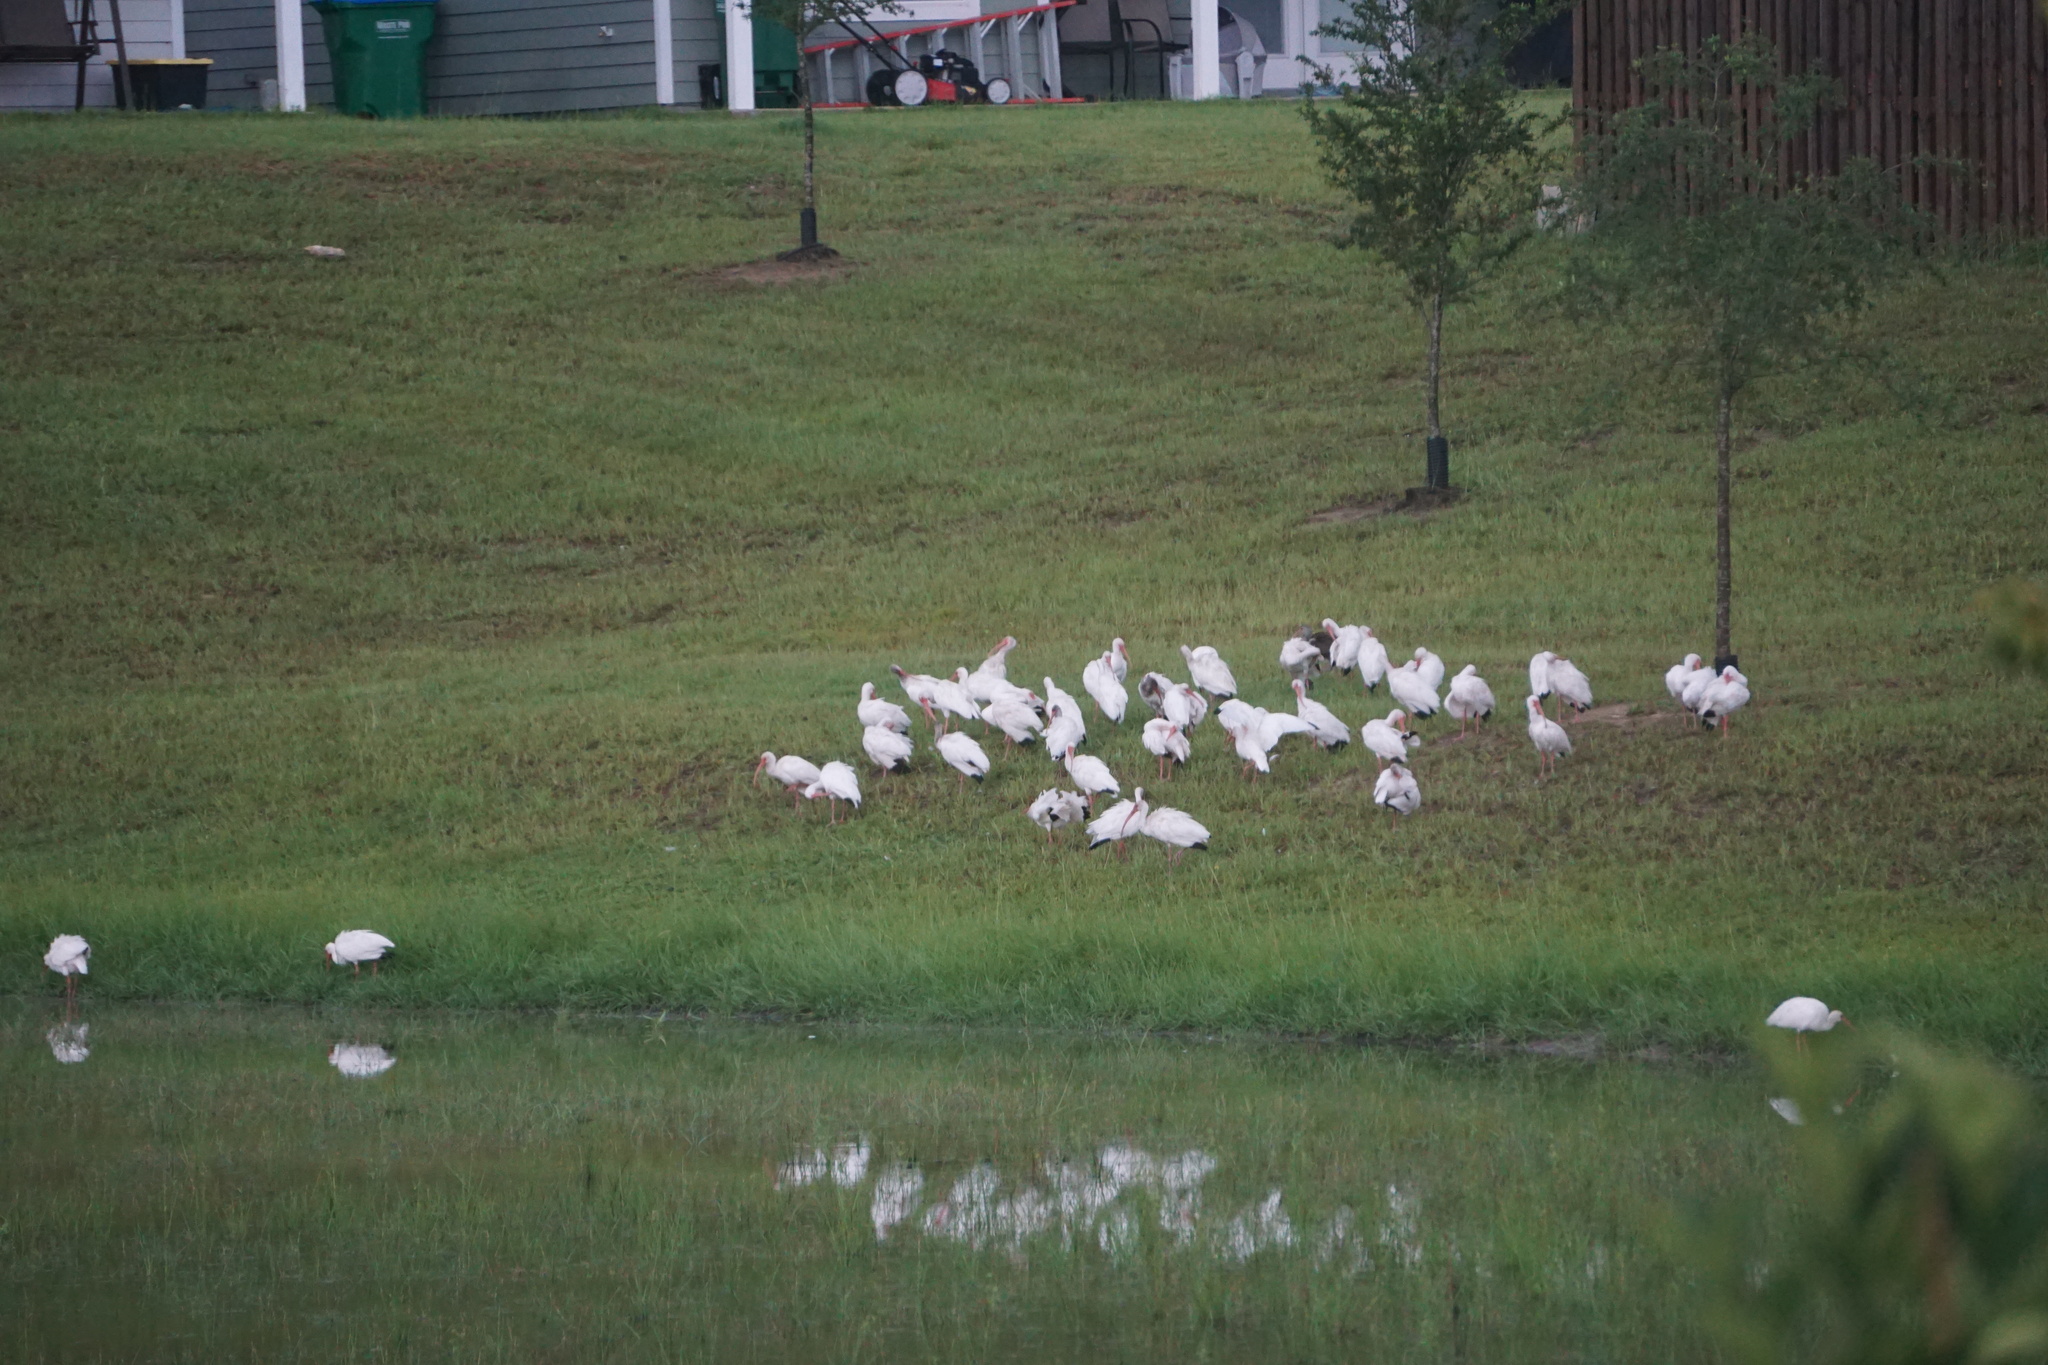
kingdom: Animalia
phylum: Chordata
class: Aves
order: Pelecaniformes
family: Threskiornithidae
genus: Eudocimus
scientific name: Eudocimus albus
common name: White ibis
